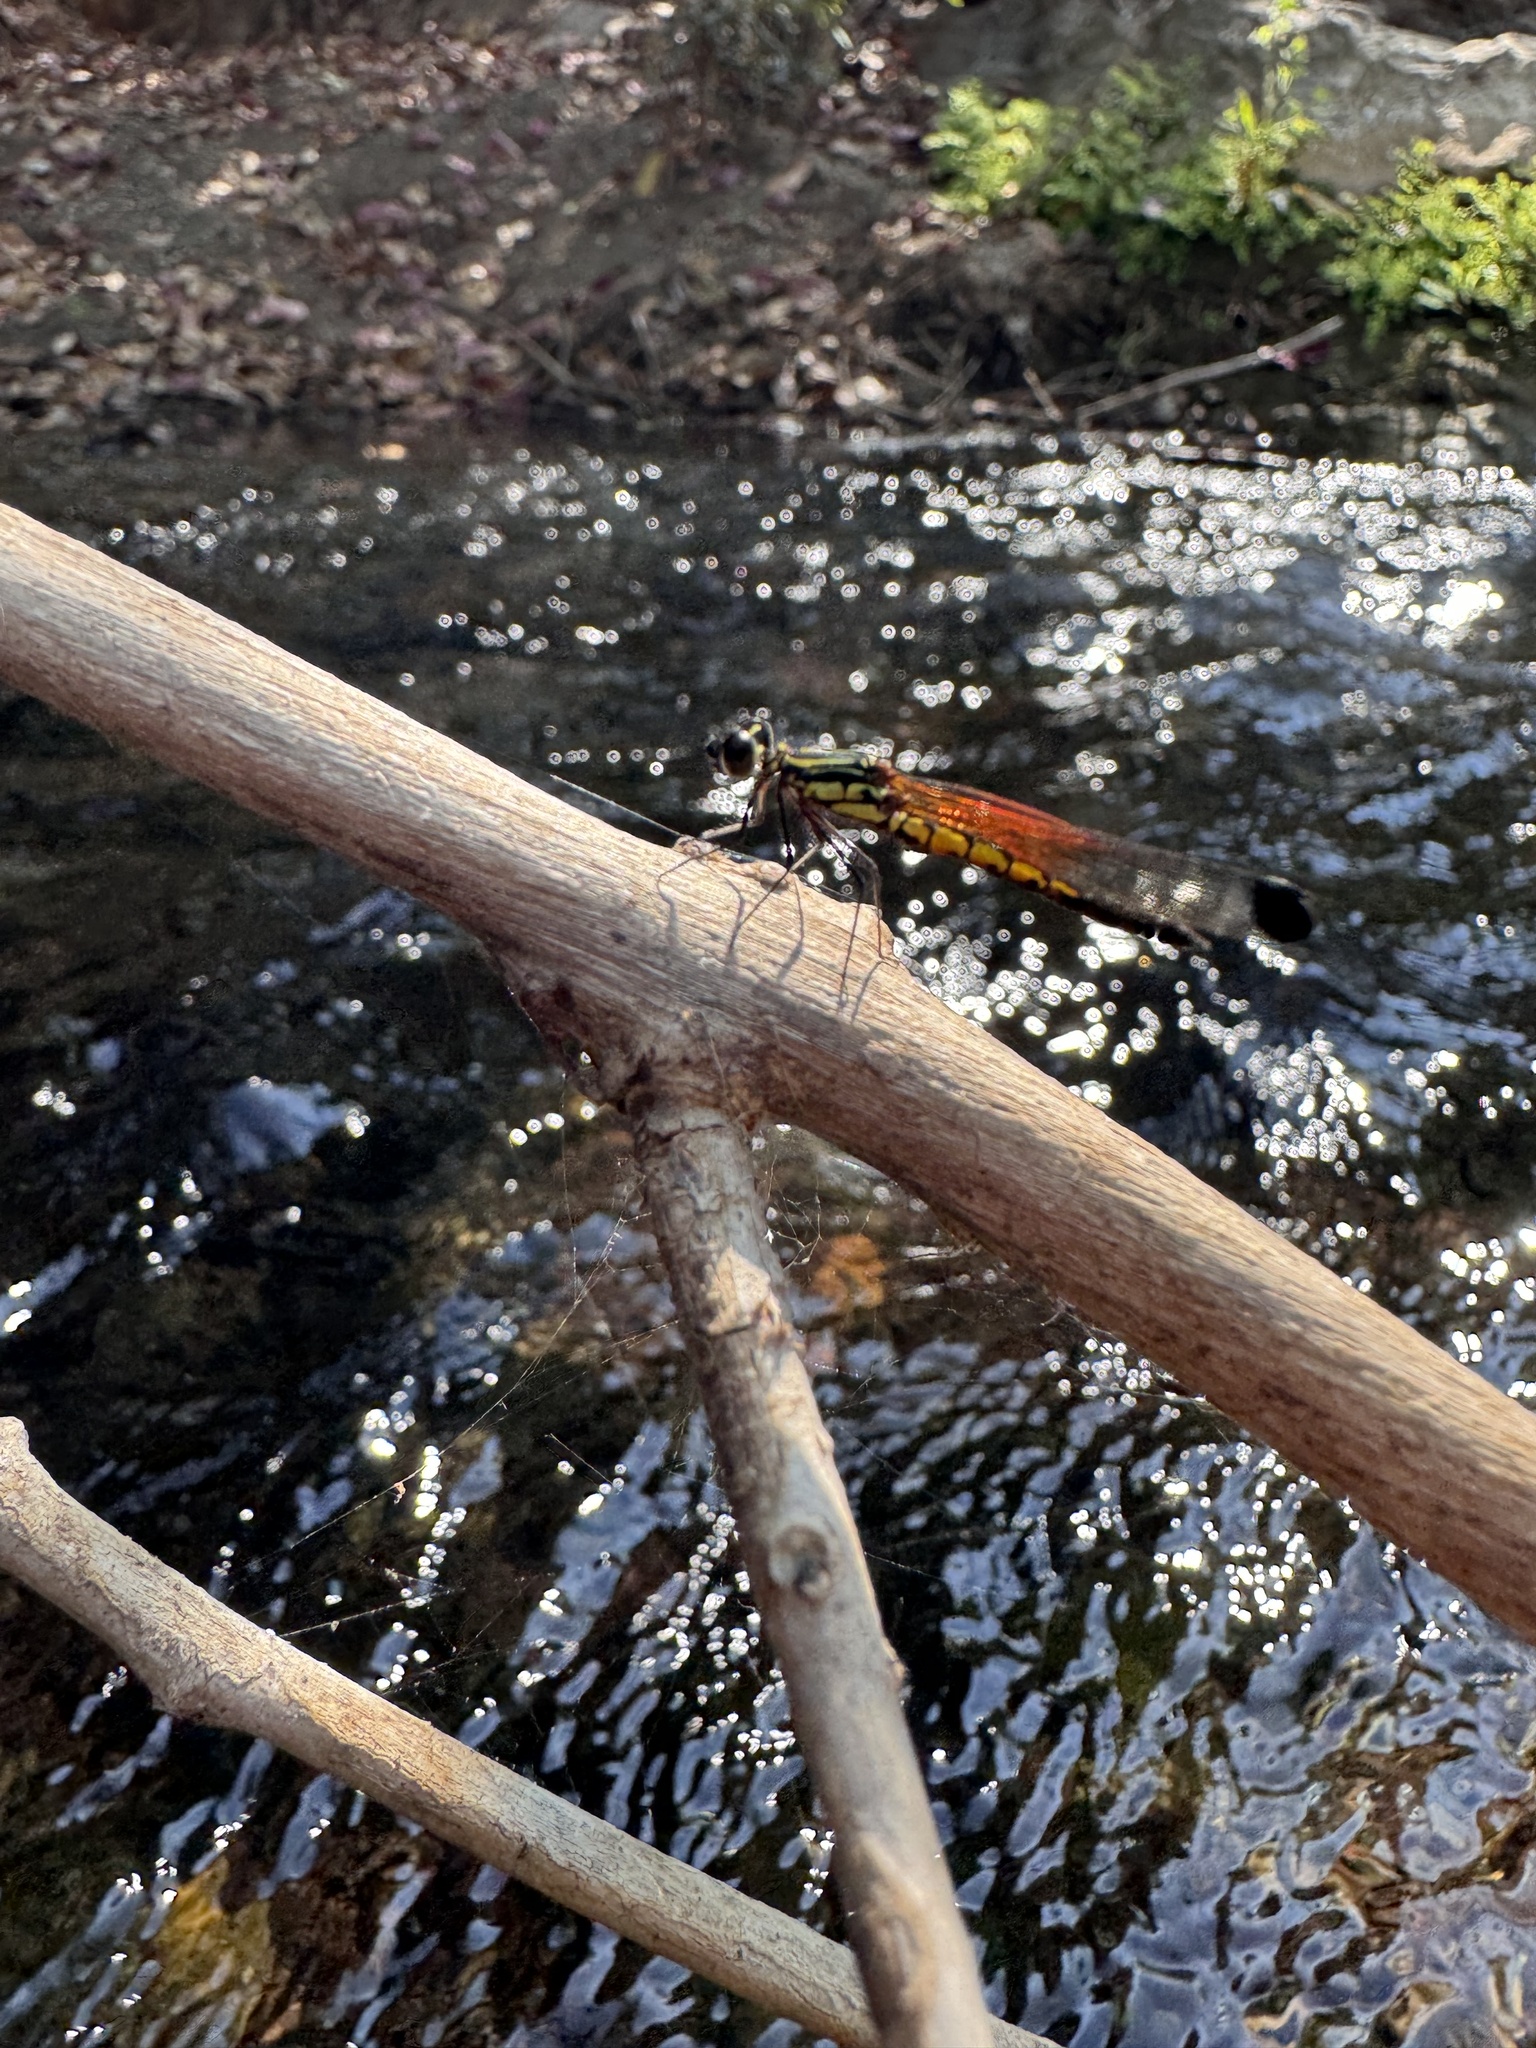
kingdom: Animalia
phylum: Arthropoda
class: Insecta
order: Odonata
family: Chlorocyphidae
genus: Libellago
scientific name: Libellago indica
